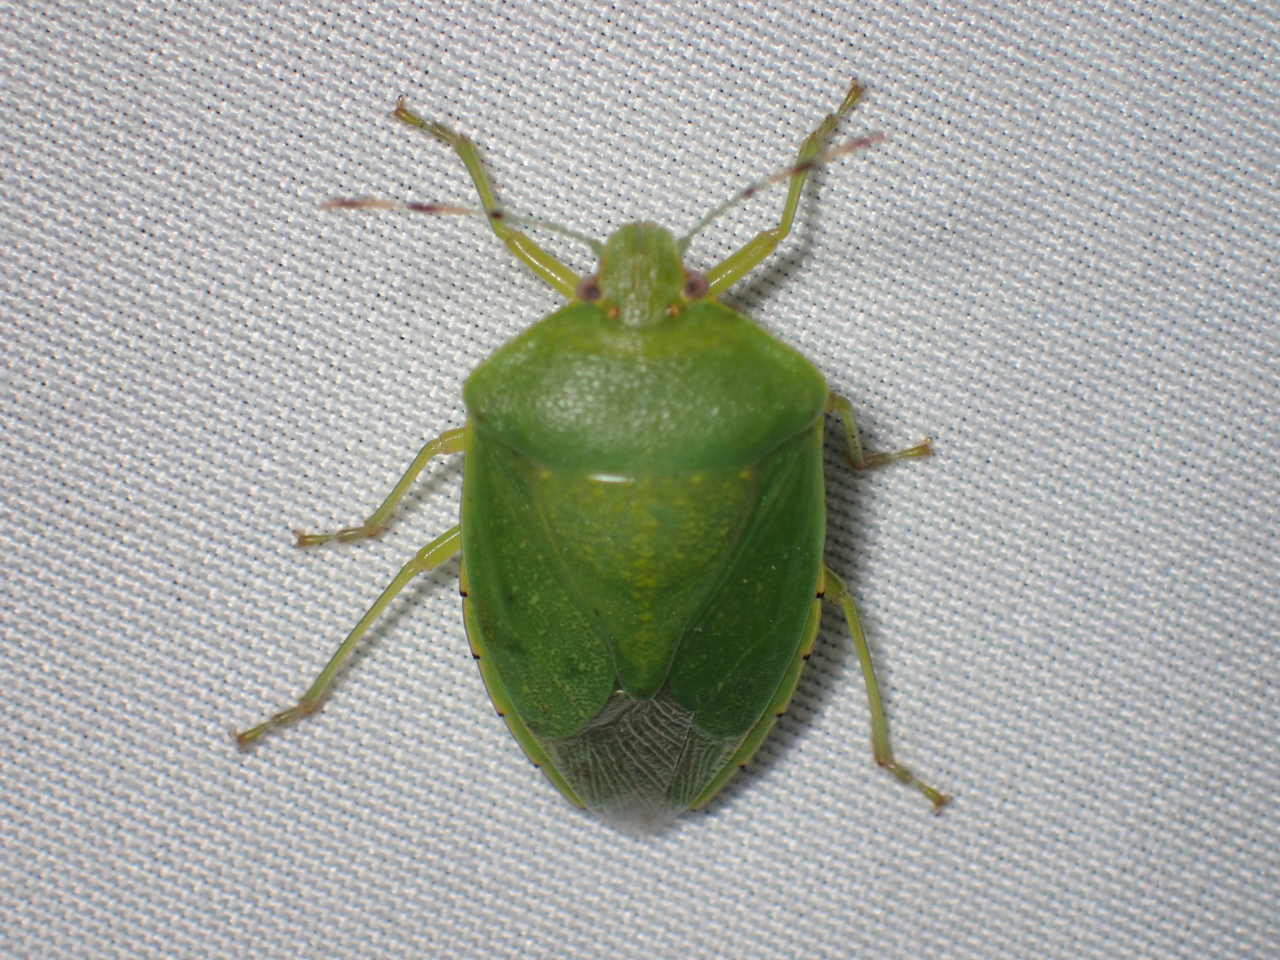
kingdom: Animalia
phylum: Arthropoda
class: Insecta
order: Hemiptera
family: Pentatomidae
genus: Chinavia
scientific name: Chinavia hilaris
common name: Green stink bug
